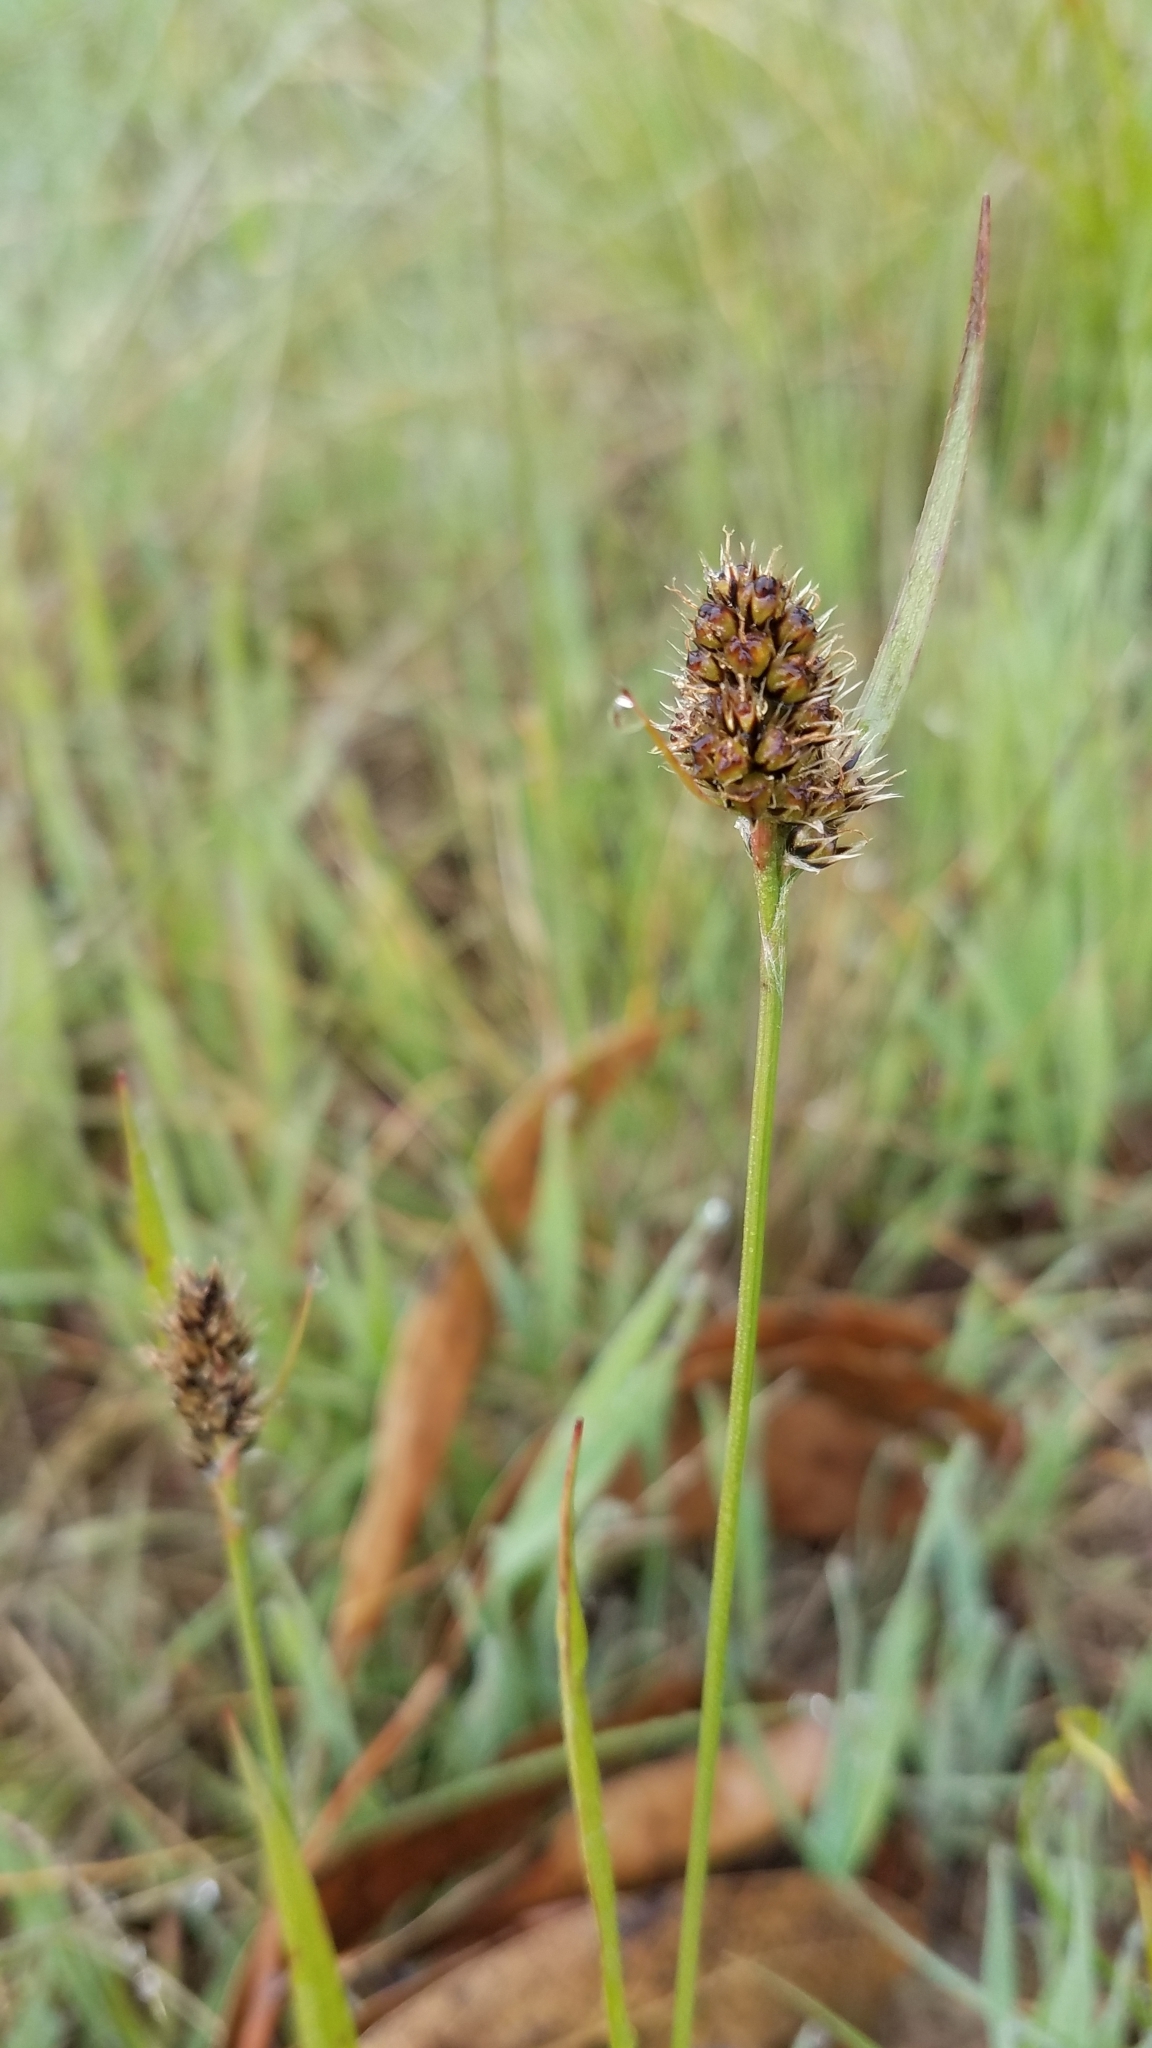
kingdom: Plantae
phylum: Tracheophyta
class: Liliopsida
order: Poales
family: Juncaceae
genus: Luzula
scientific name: Luzula macrantha
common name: Large-anthered woodrush
